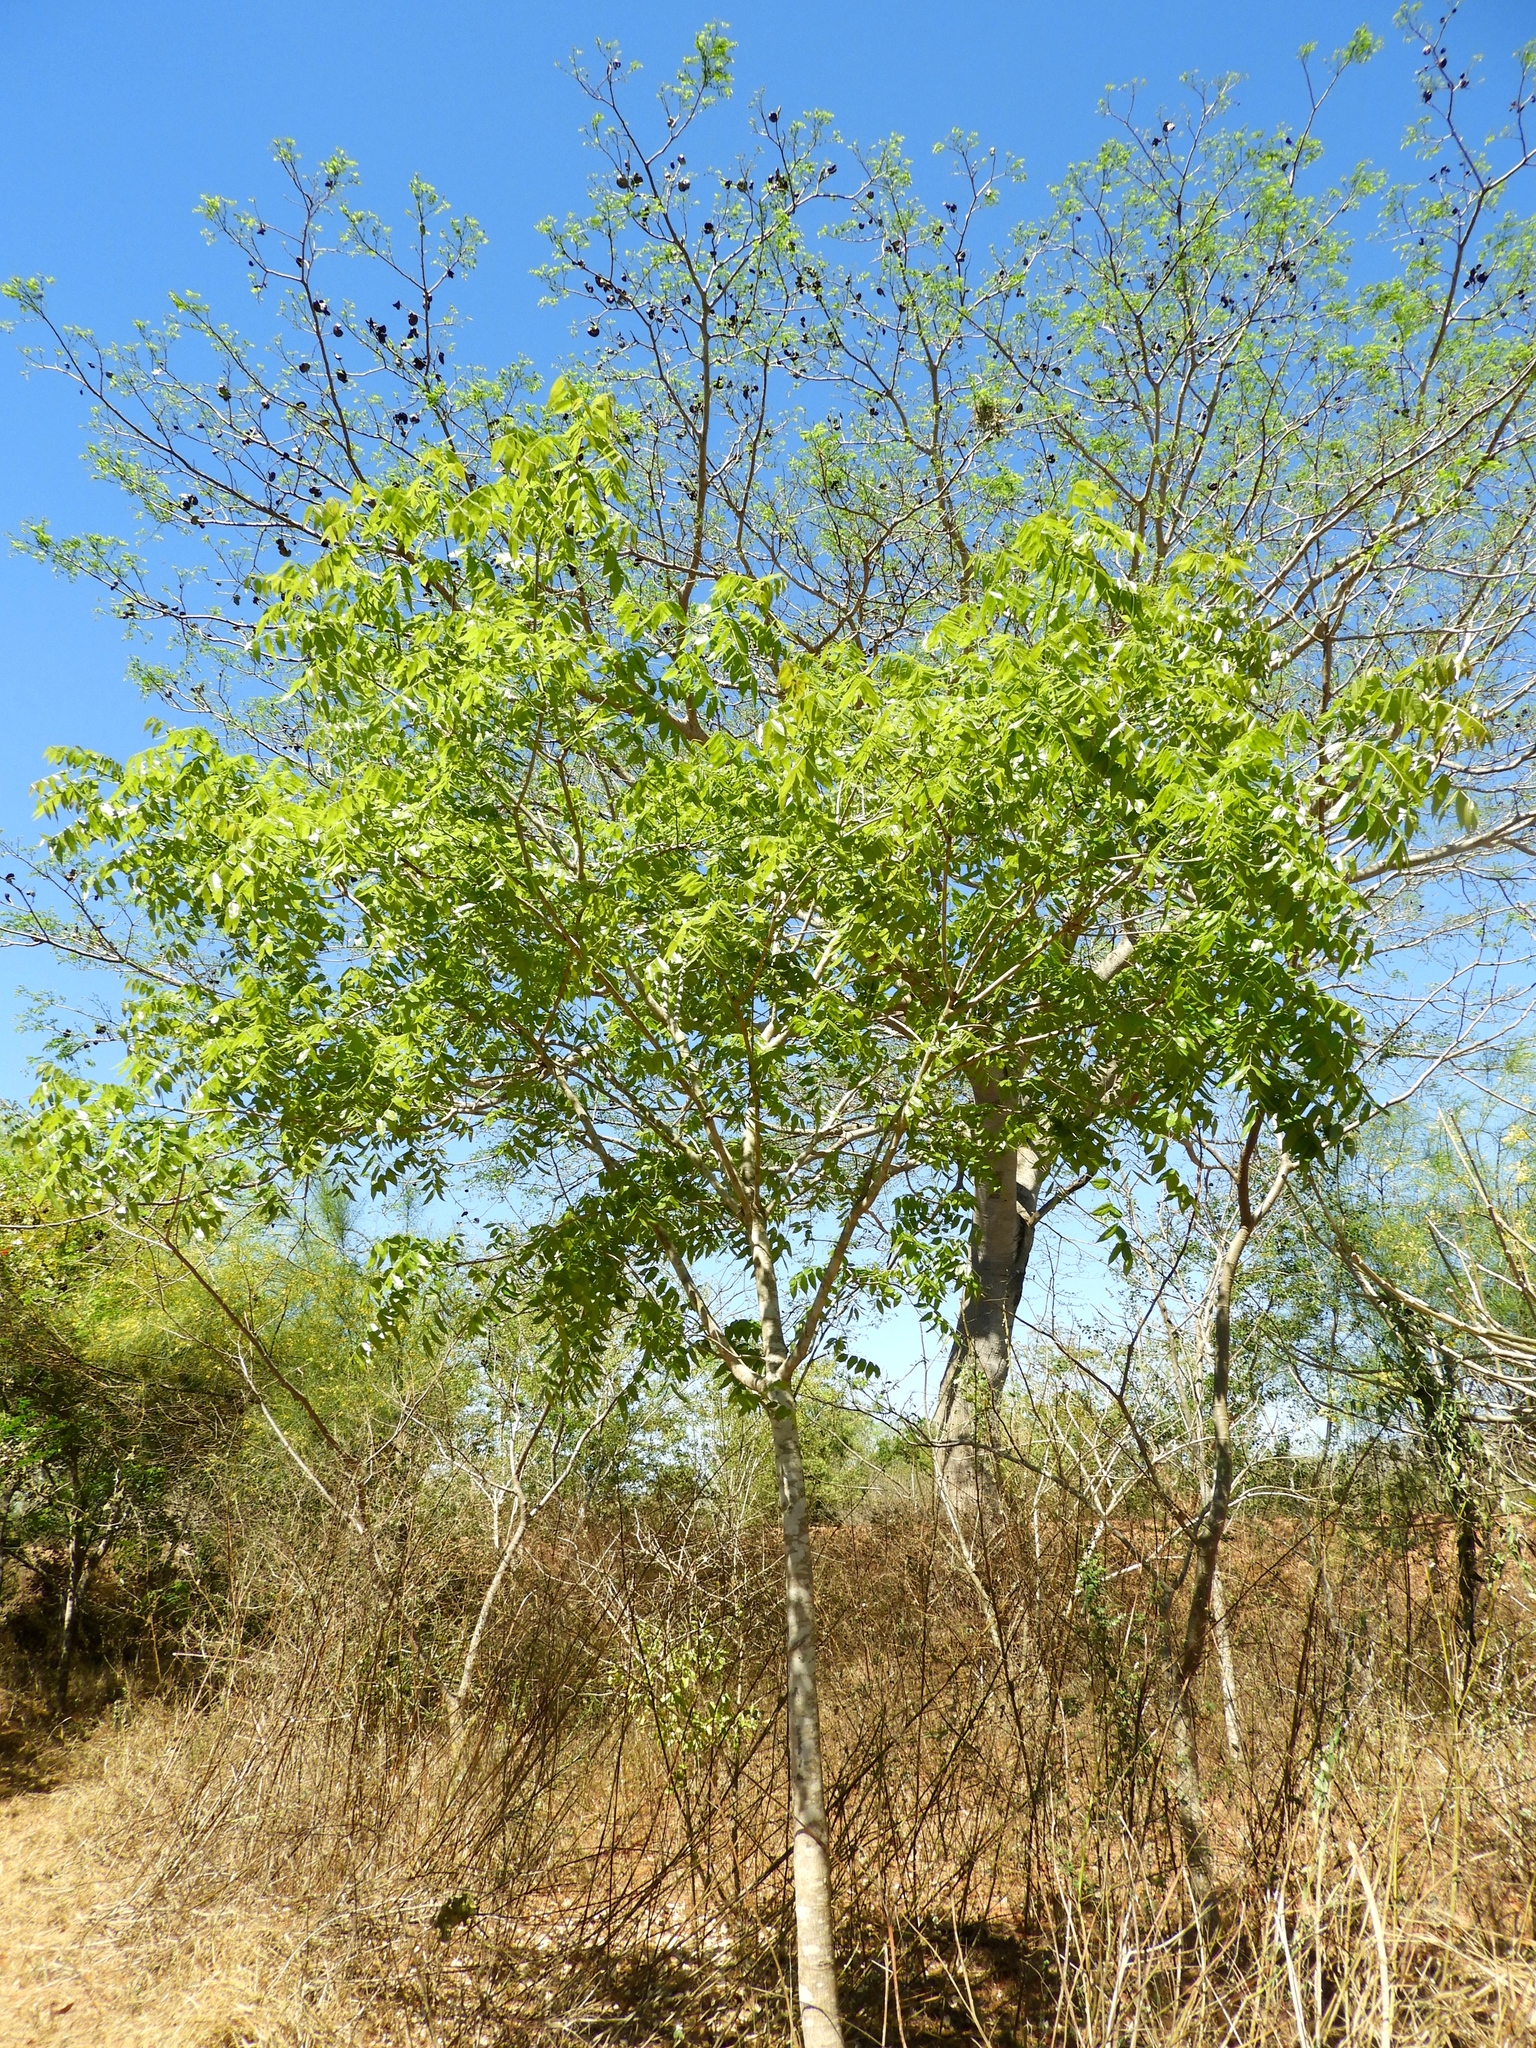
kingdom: Plantae
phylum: Tracheophyta
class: Magnoliopsida
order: Sapindales
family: Meliaceae
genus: Swietenia
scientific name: Swietenia humilis
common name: Pacific coast mahogany
